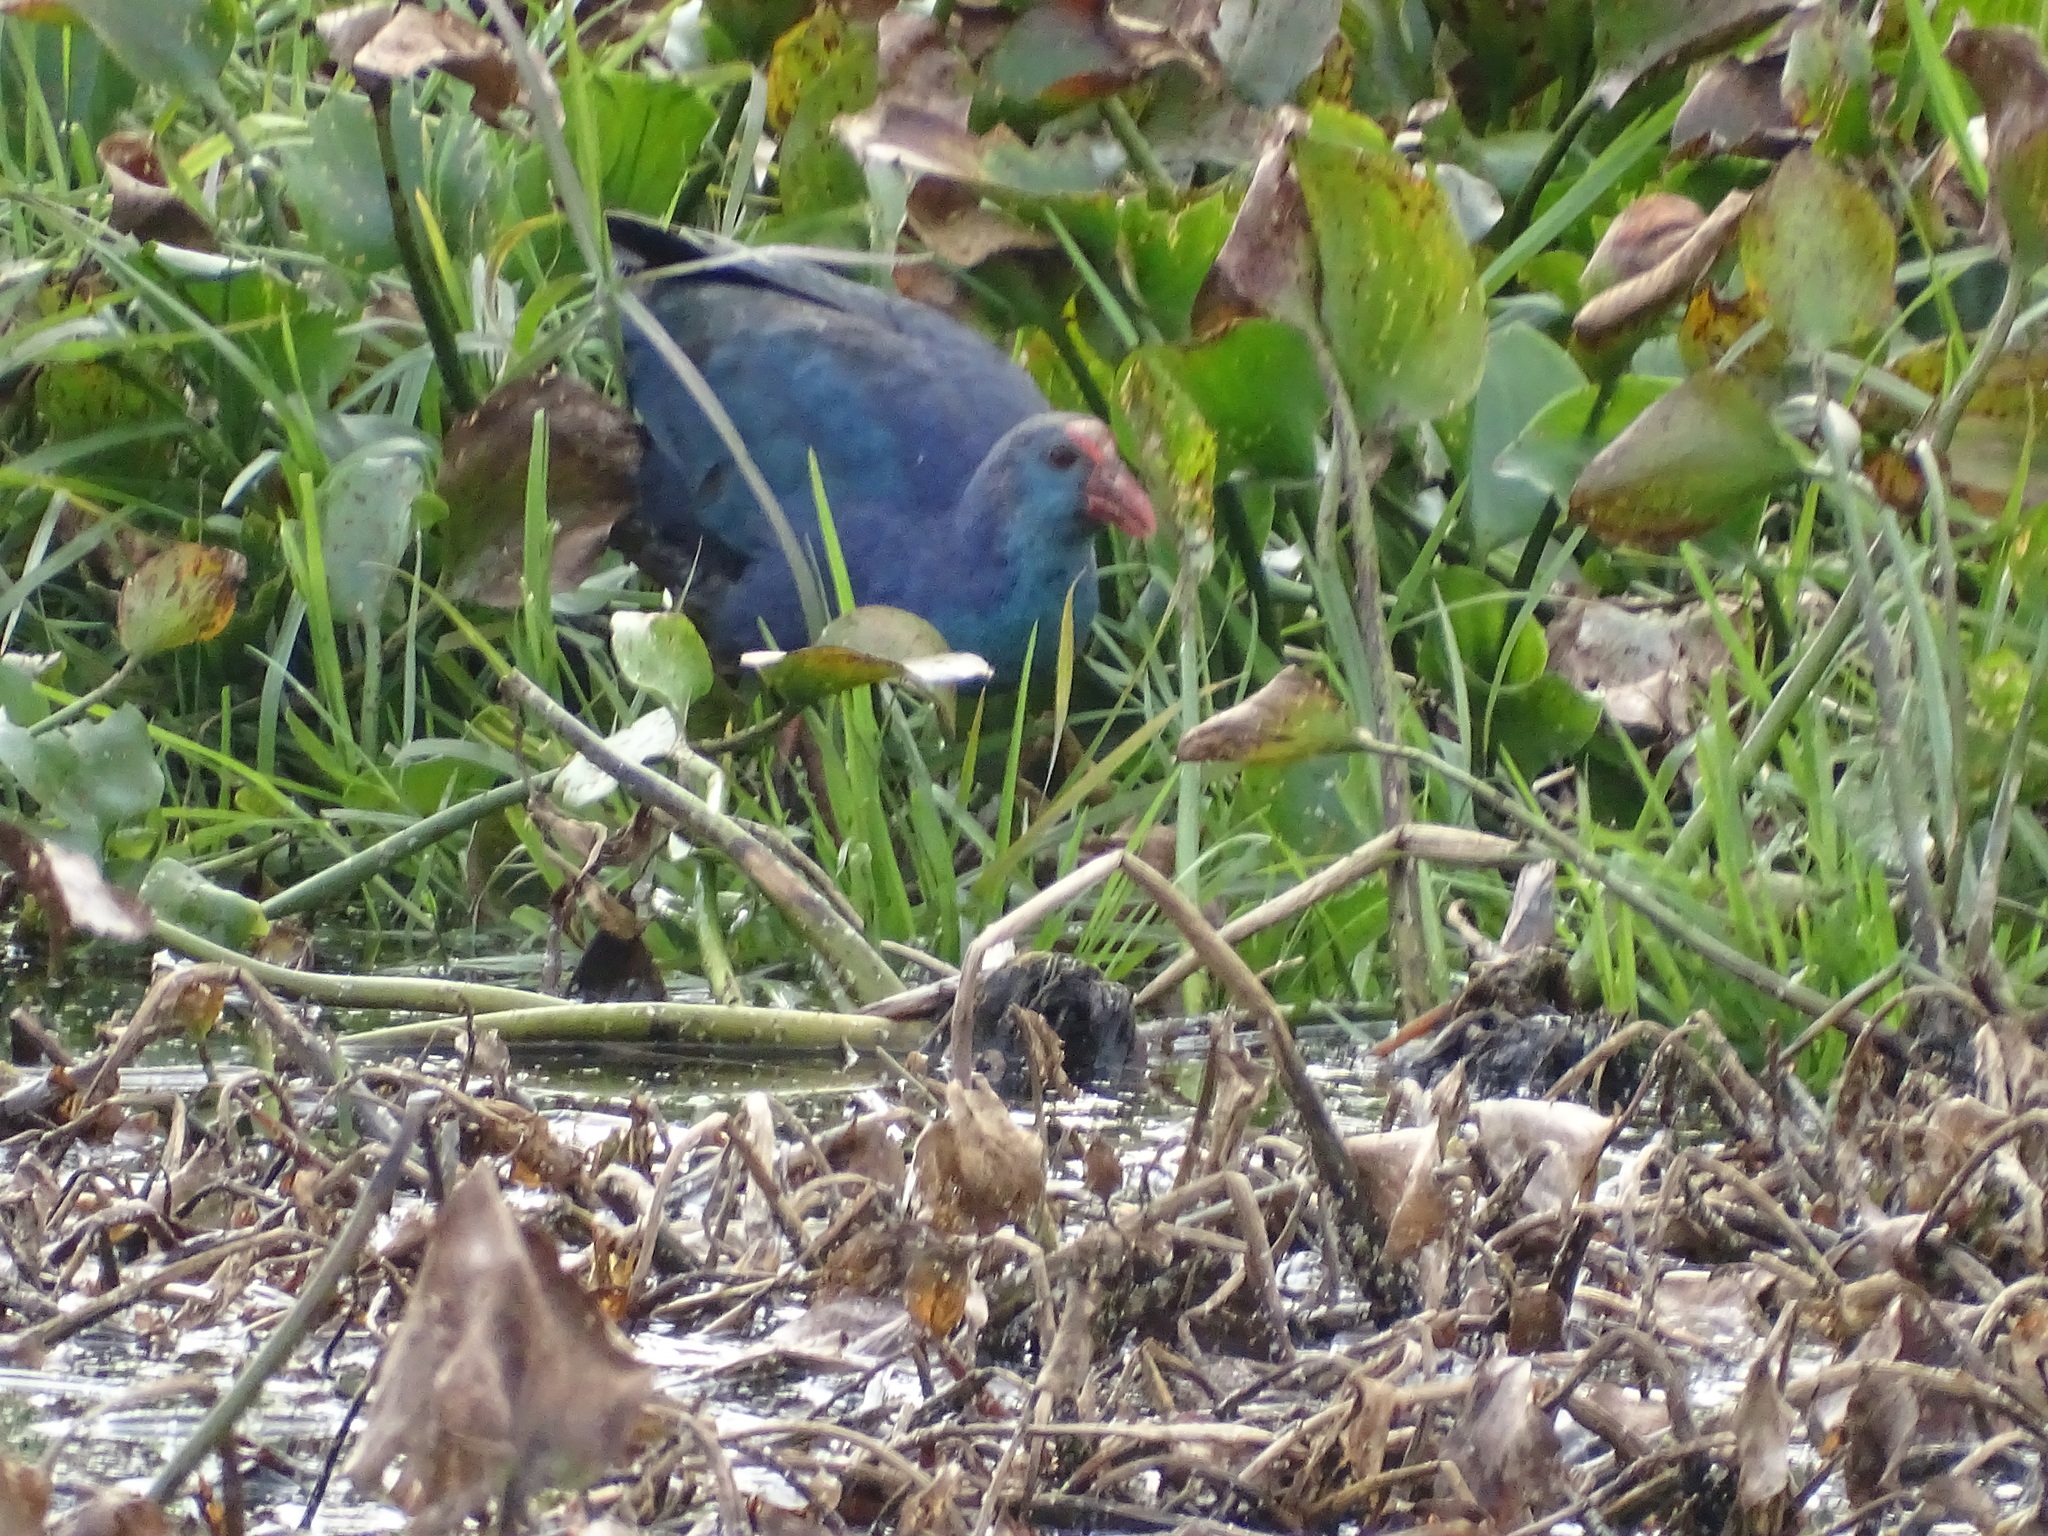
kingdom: Animalia
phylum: Chordata
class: Aves
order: Gruiformes
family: Rallidae
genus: Porphyrio
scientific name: Porphyrio porphyrio
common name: Purple swamphen
